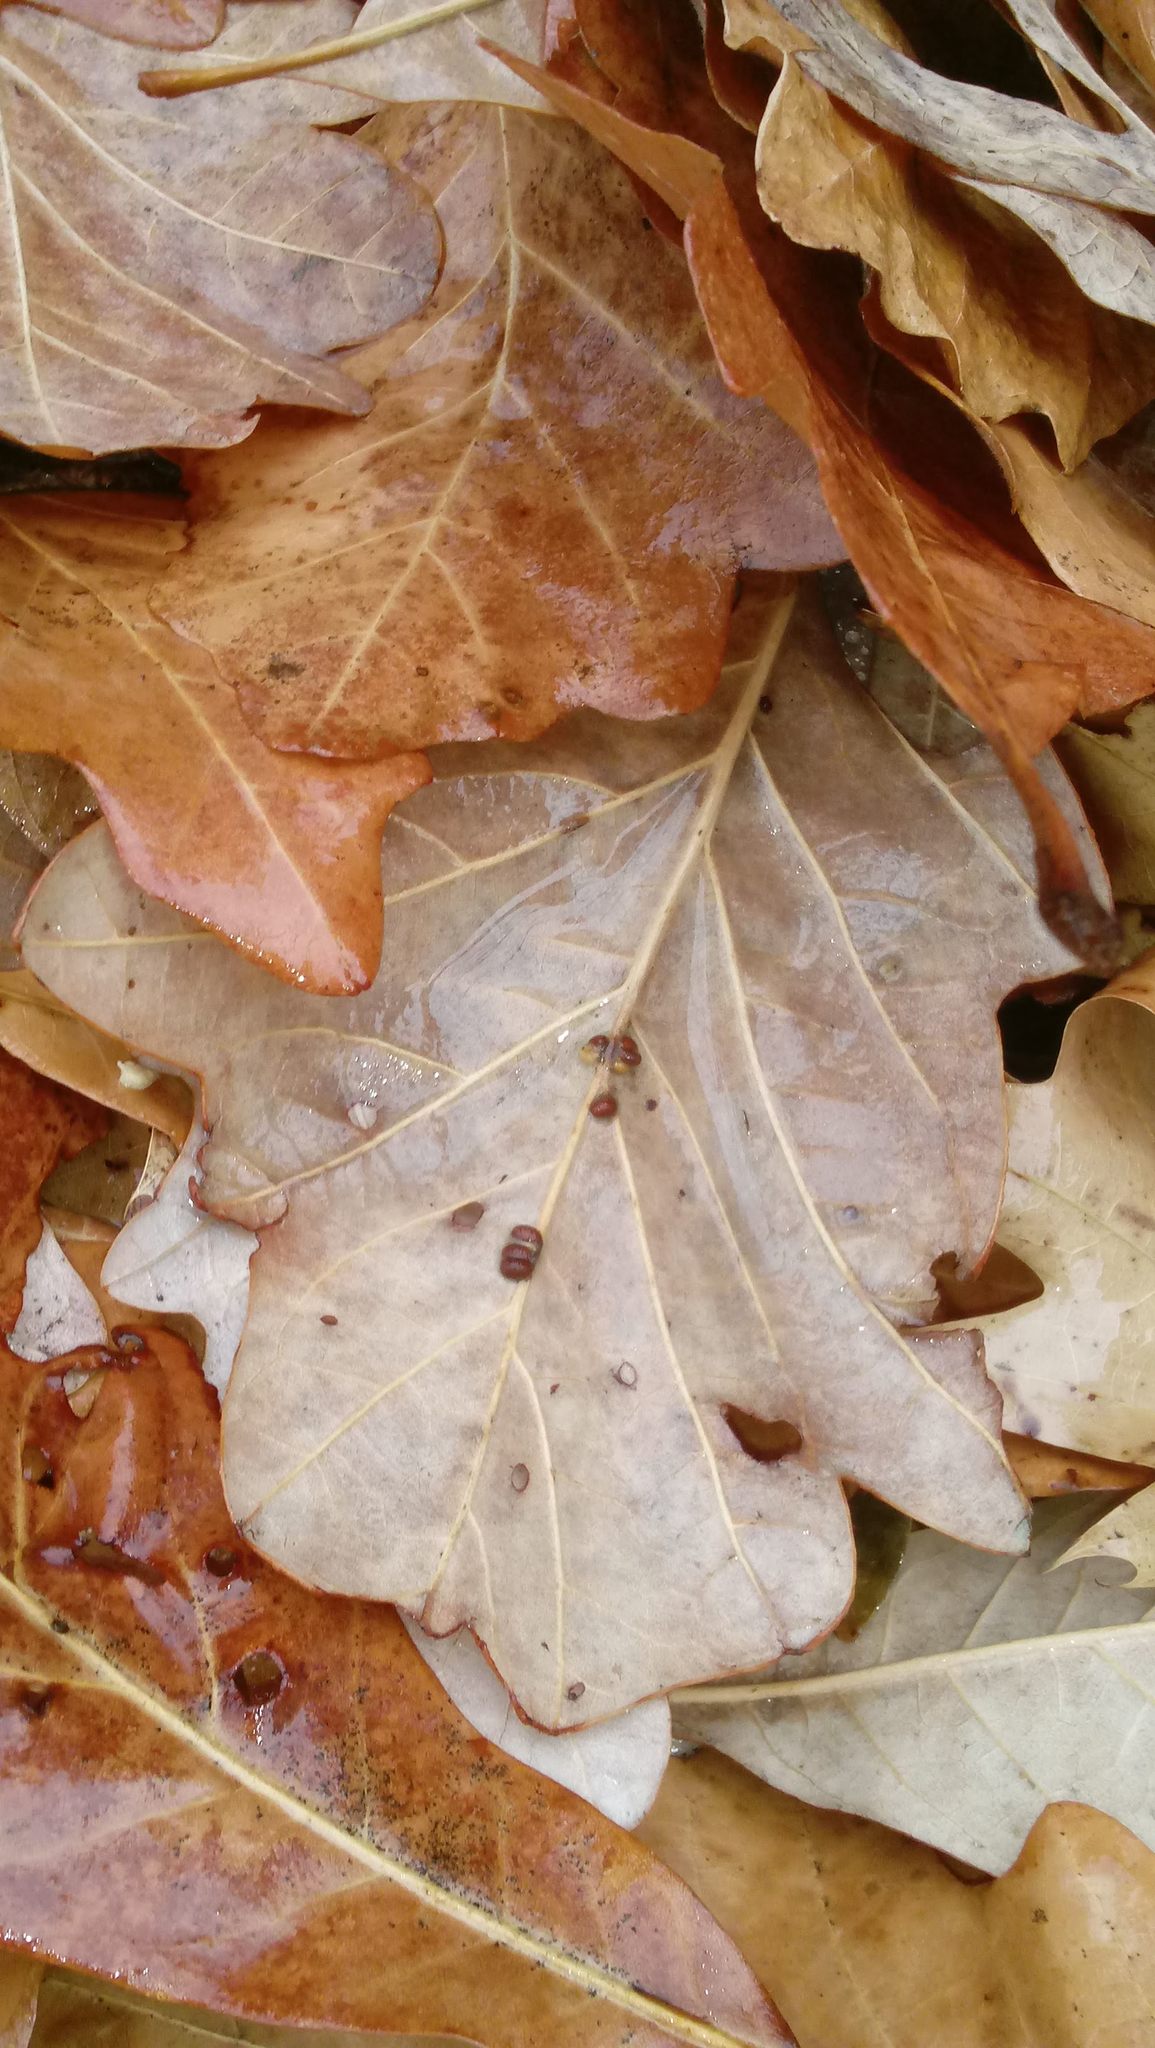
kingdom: Animalia
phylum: Arthropoda
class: Insecta
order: Hymenoptera
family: Cynipidae
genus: Andricus
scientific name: Andricus Druon ignotum
